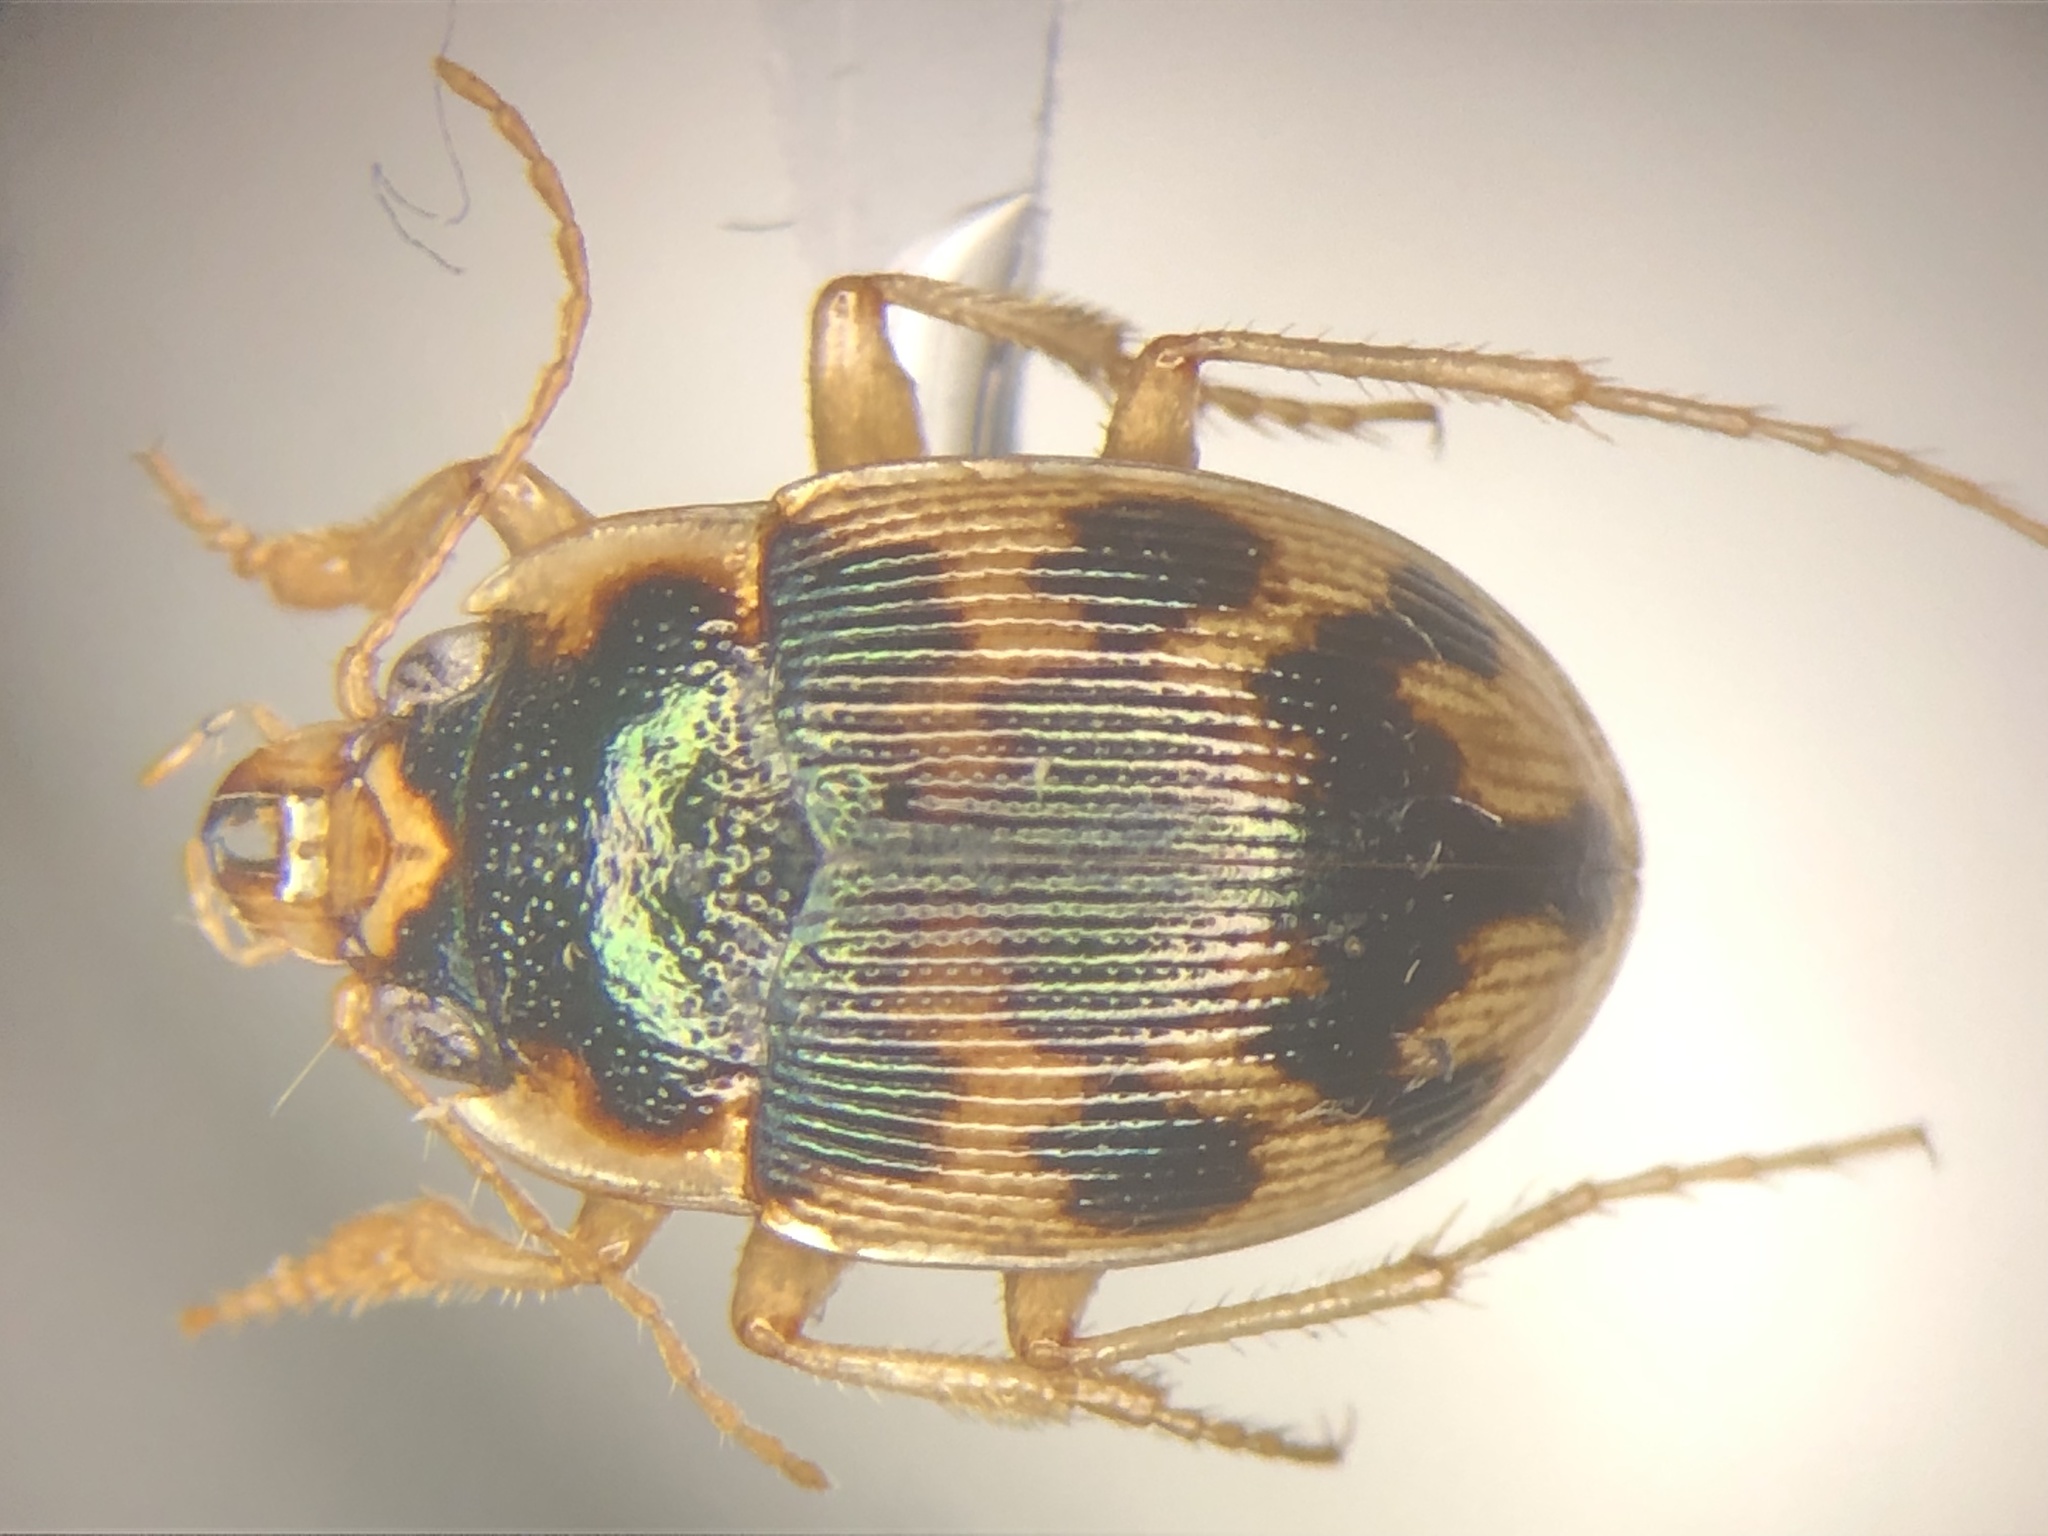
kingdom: Animalia
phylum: Arthropoda
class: Insecta
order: Coleoptera
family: Carabidae
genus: Omophron
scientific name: Omophron americanum
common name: American round sand beetle
